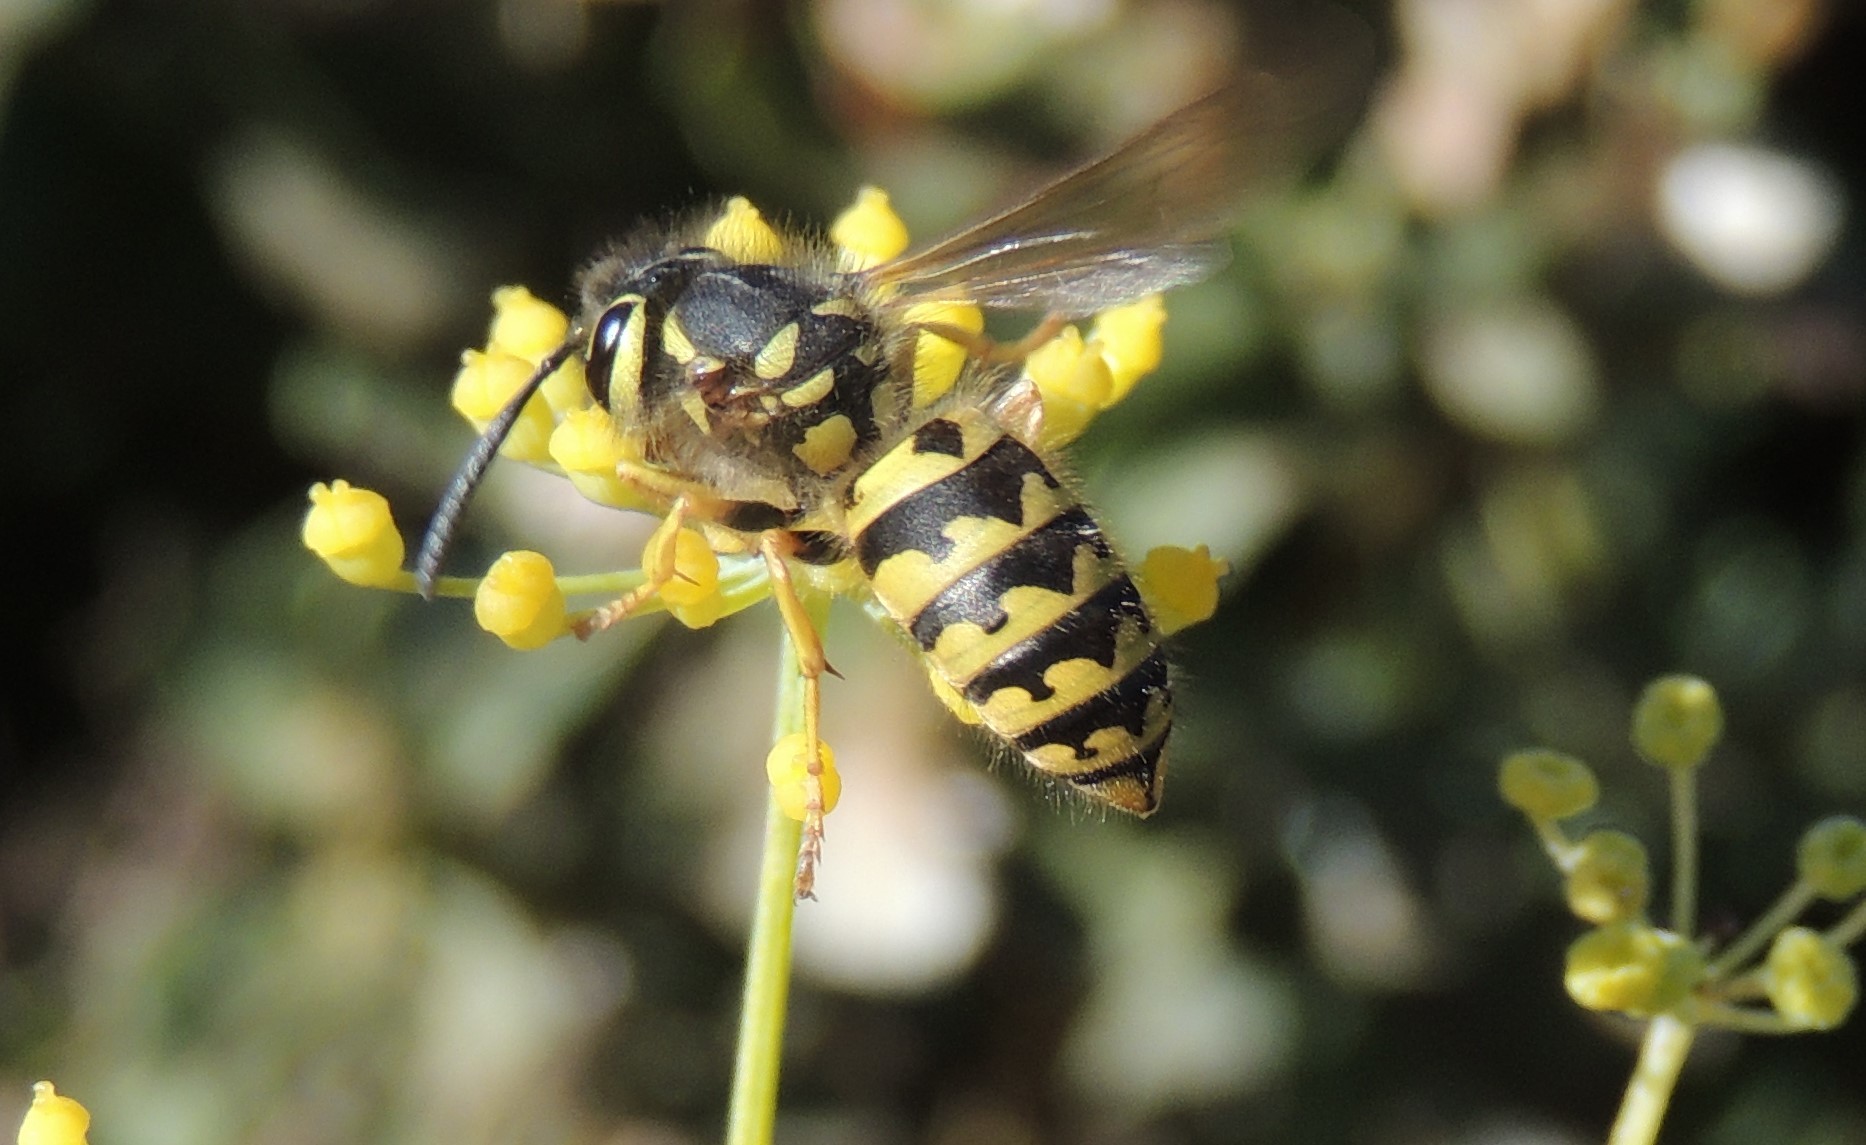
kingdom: Animalia
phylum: Arthropoda
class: Insecta
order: Hymenoptera
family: Vespidae
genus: Vespula
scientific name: Vespula pensylvanica
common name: Western yellowjacket
